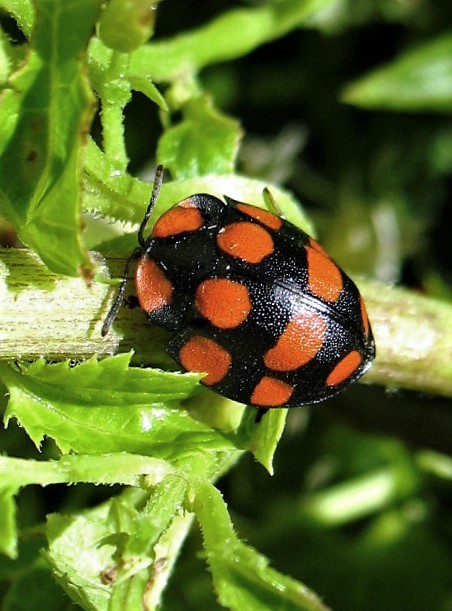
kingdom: Animalia
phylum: Arthropoda
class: Insecta
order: Coleoptera
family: Chrysomelidae
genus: Botanochara
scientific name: Botanochara decempustulata
